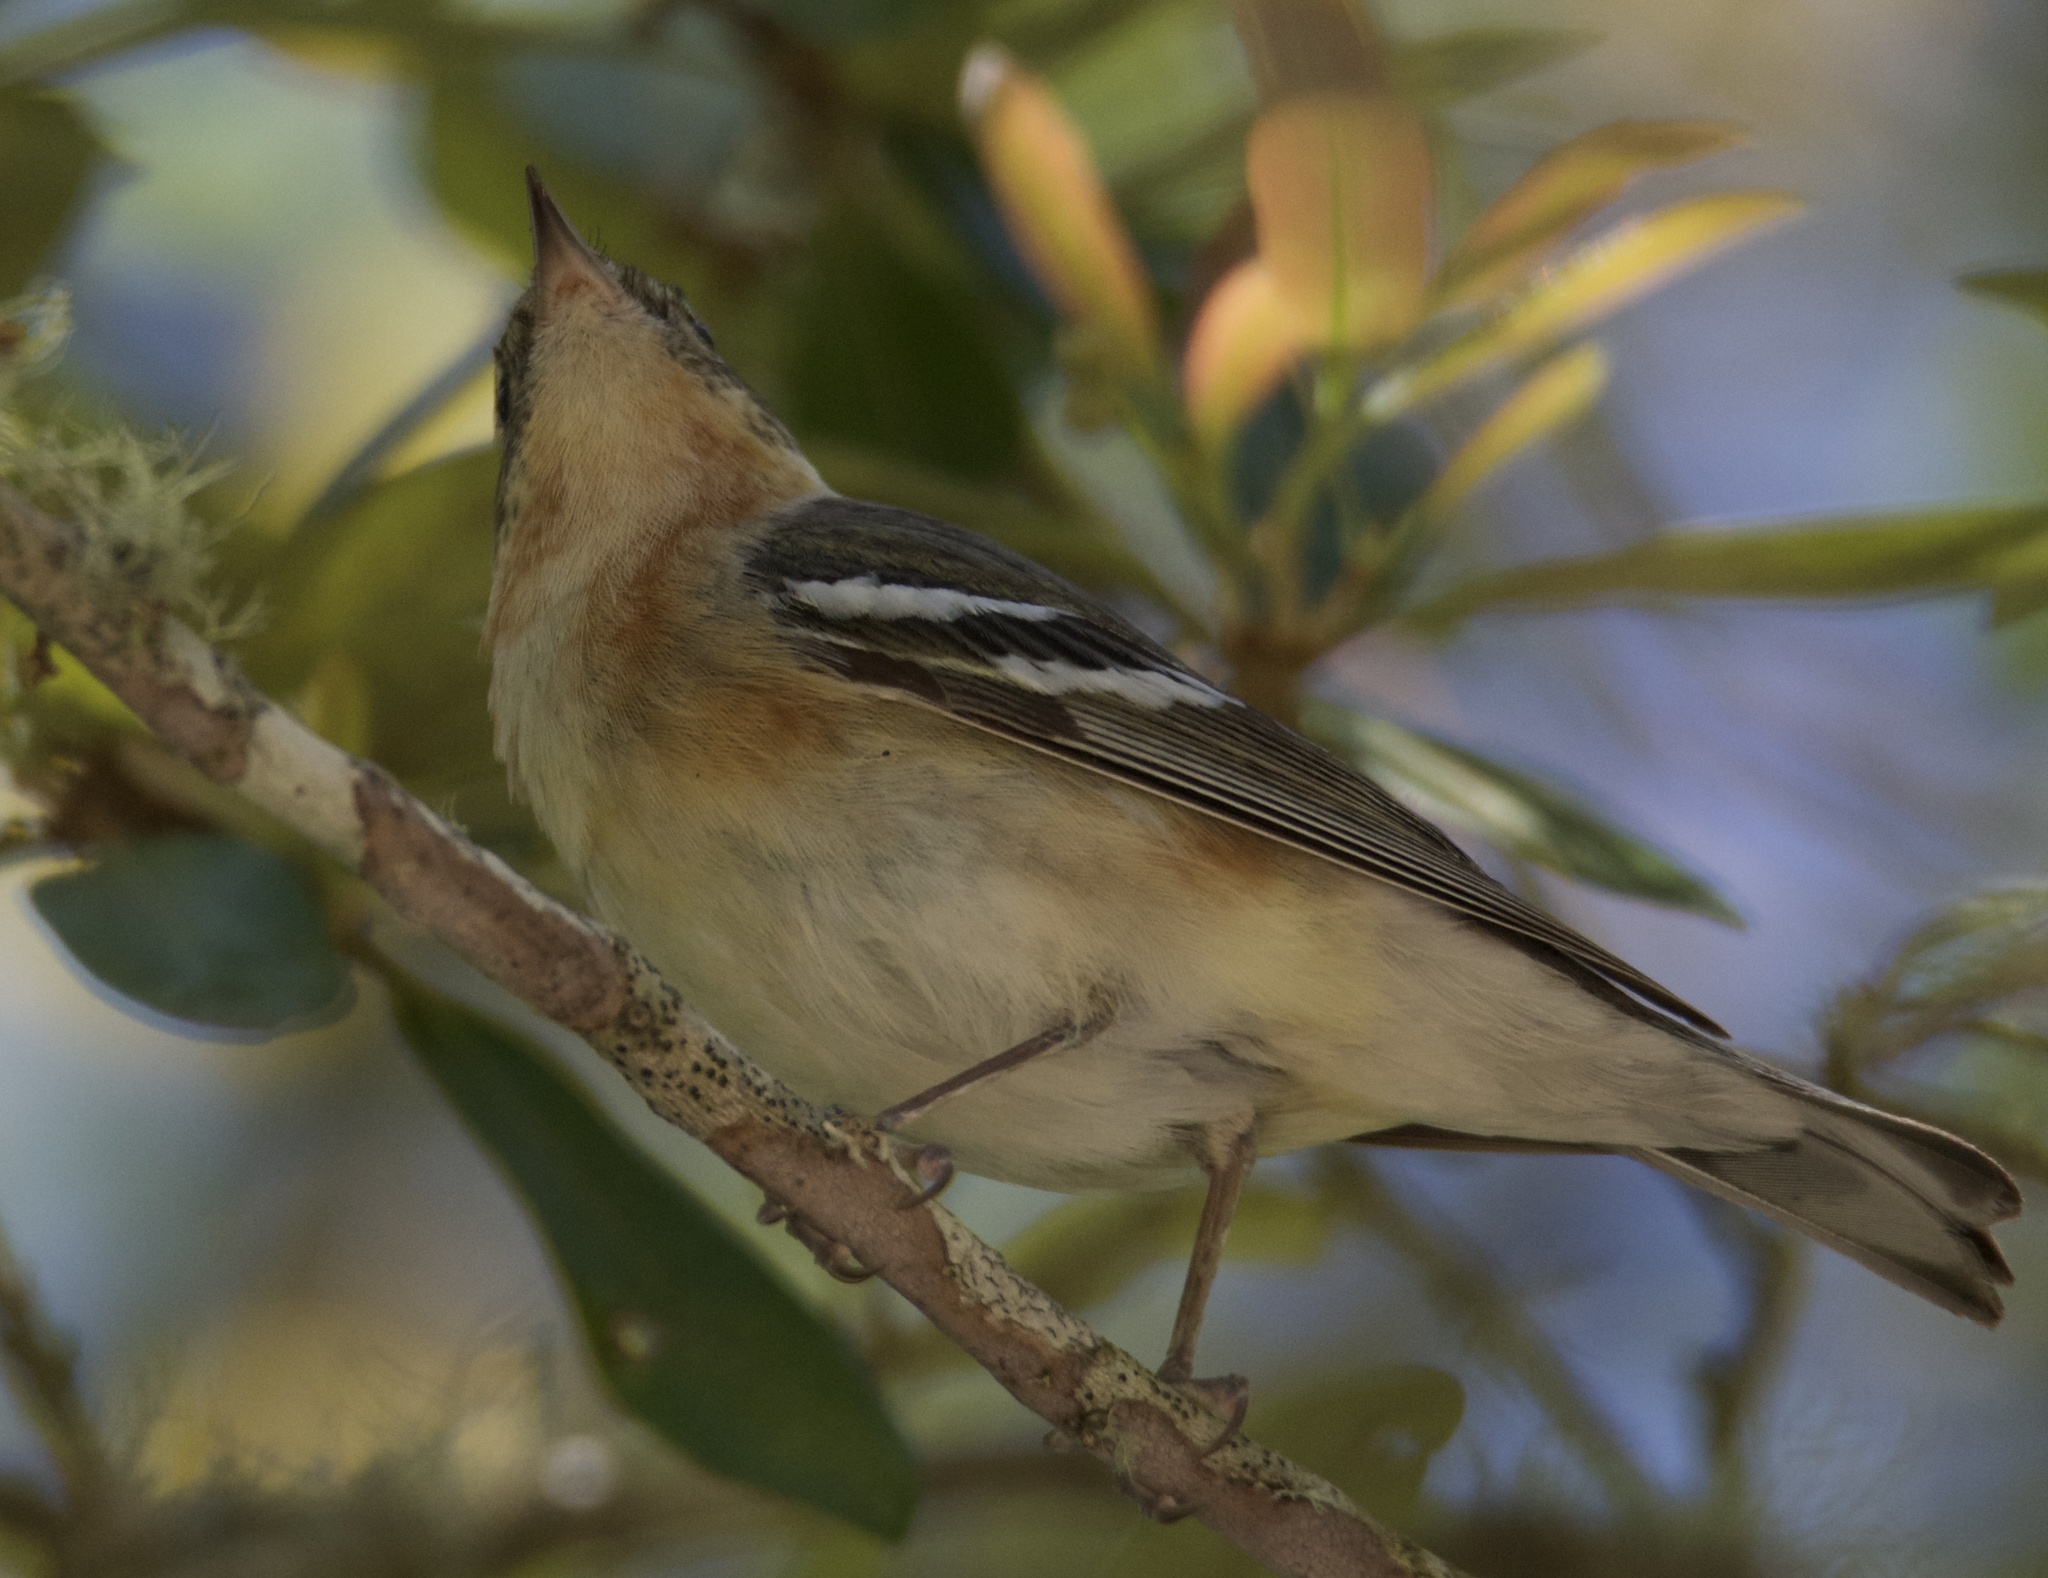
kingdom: Animalia
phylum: Chordata
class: Aves
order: Passeriformes
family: Parulidae
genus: Setophaga
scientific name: Setophaga castanea
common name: Bay-breasted warbler
